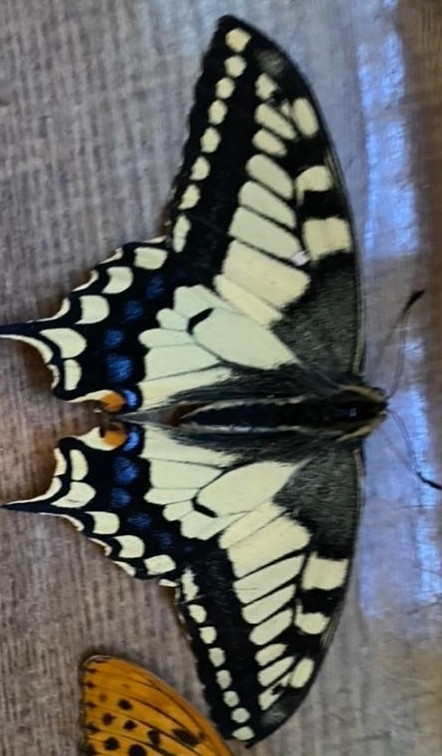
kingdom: Animalia
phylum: Arthropoda
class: Insecta
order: Lepidoptera
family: Papilionidae
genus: Papilio
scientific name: Papilio machaon
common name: Swallowtail
